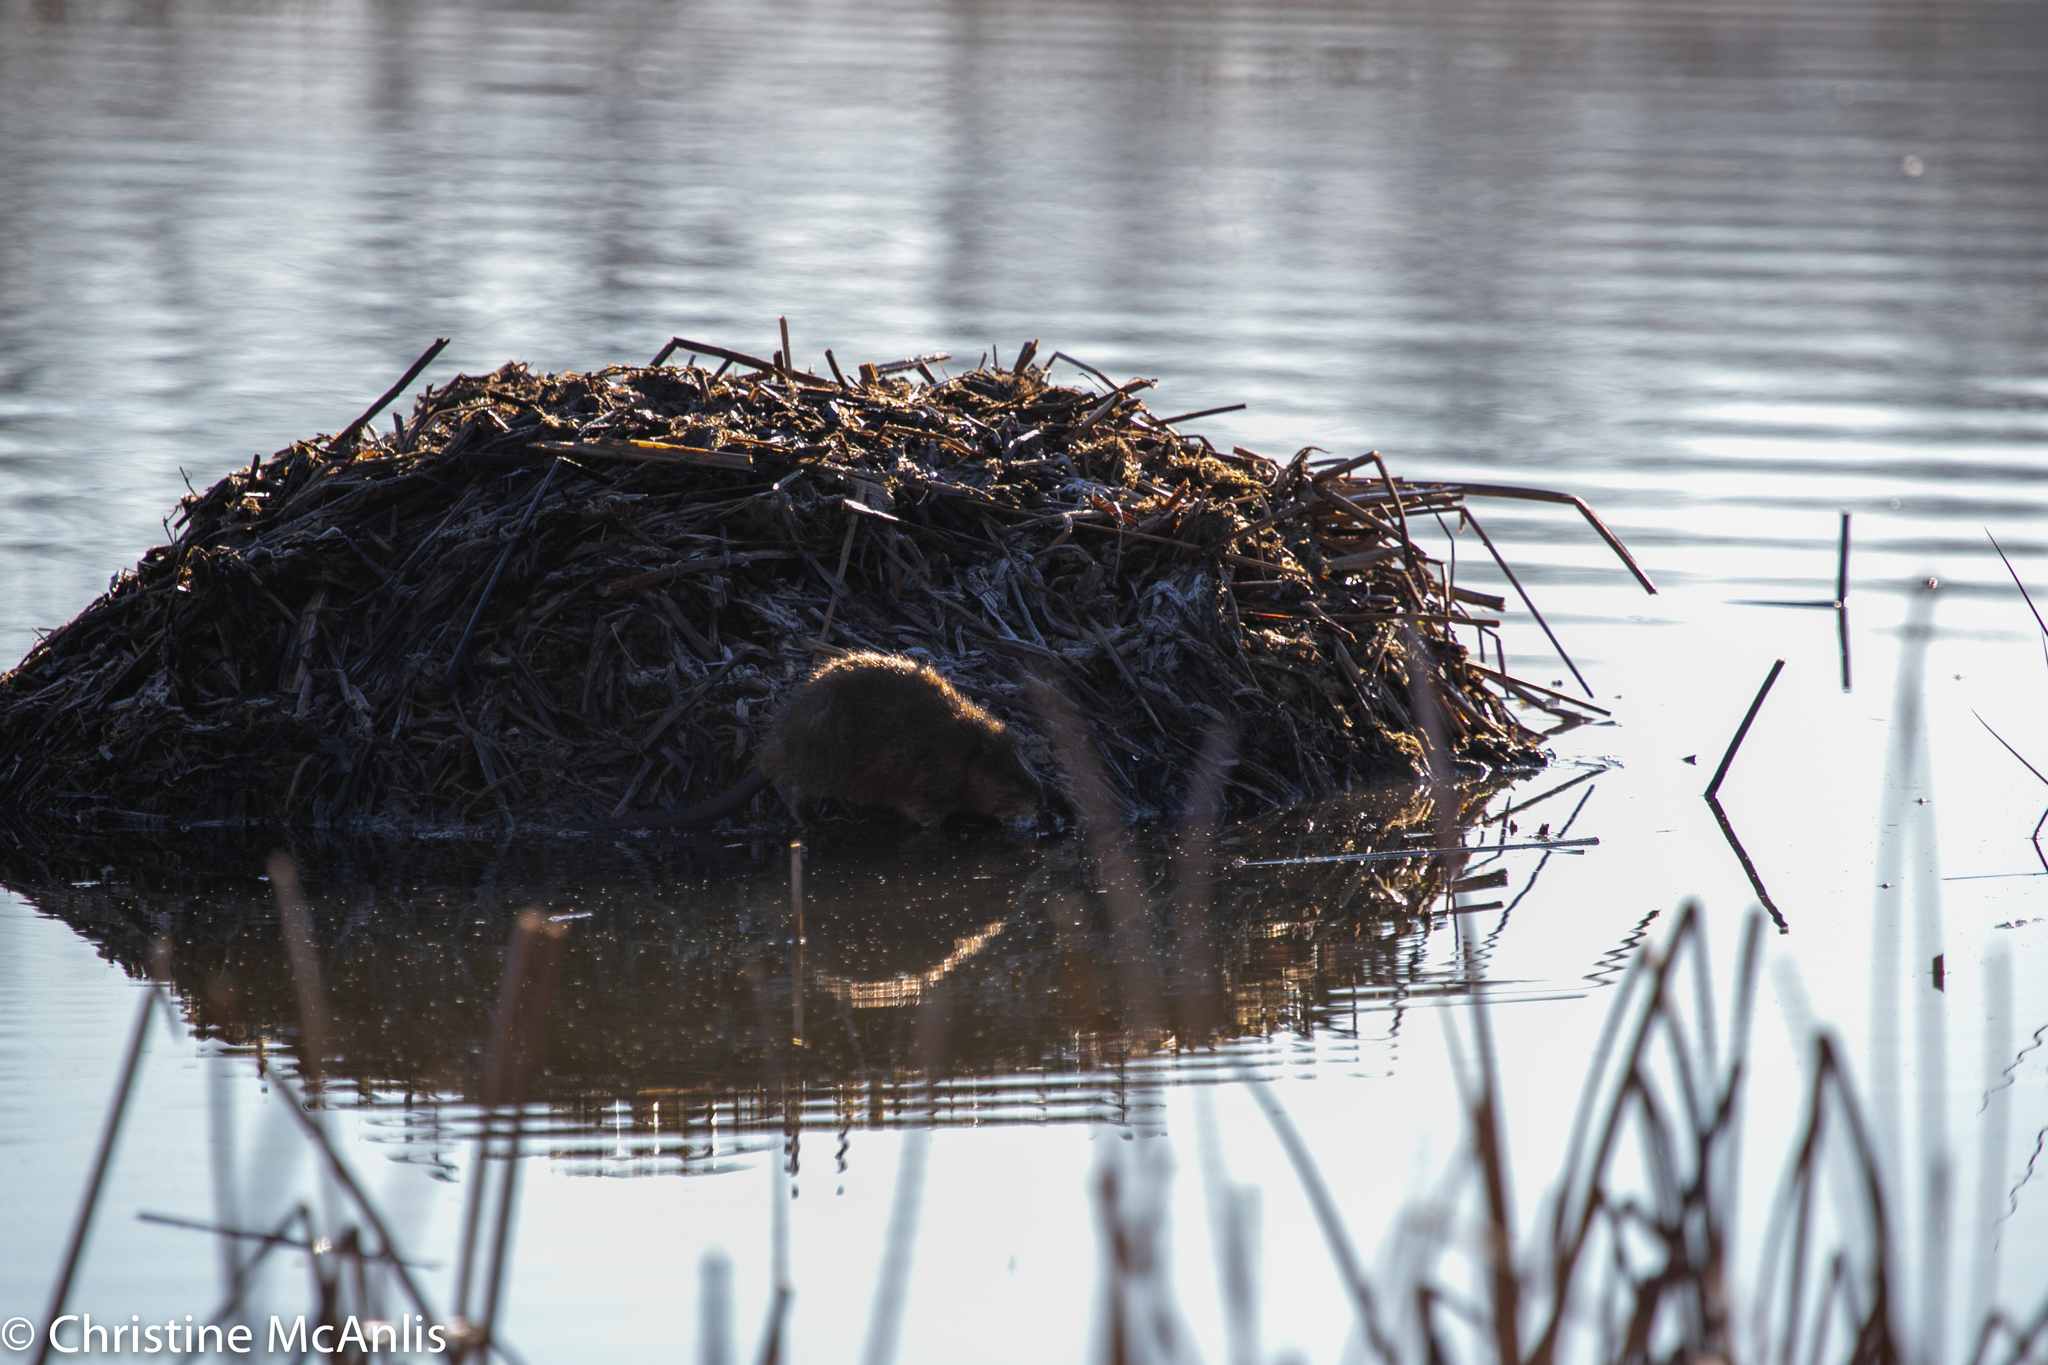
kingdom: Animalia
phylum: Chordata
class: Mammalia
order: Rodentia
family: Cricetidae
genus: Ondatra
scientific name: Ondatra zibethicus
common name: Muskrat
